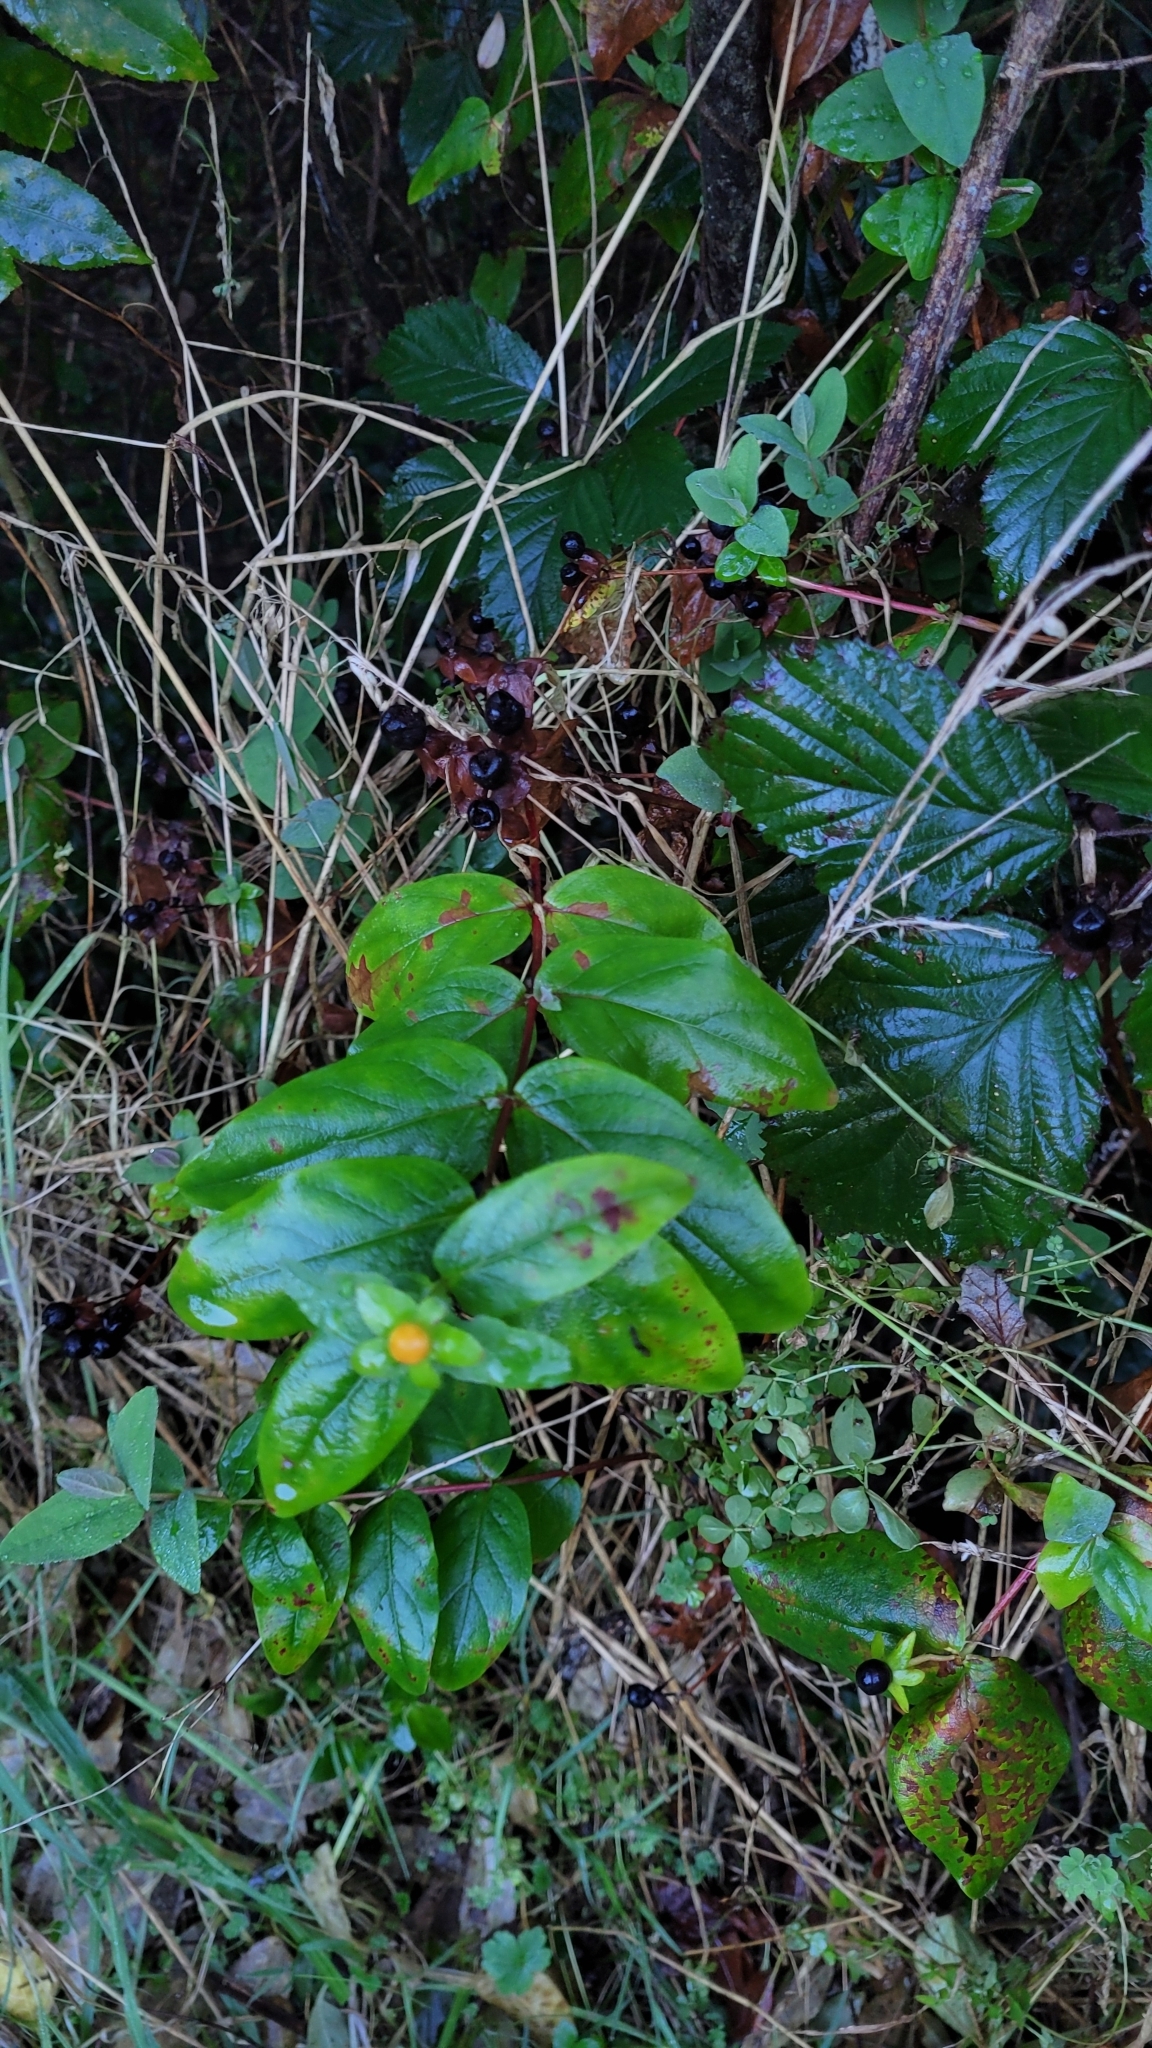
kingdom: Plantae
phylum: Tracheophyta
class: Magnoliopsida
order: Malpighiales
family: Hypericaceae
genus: Hypericum
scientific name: Hypericum androsaemum
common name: Sweet-amber
